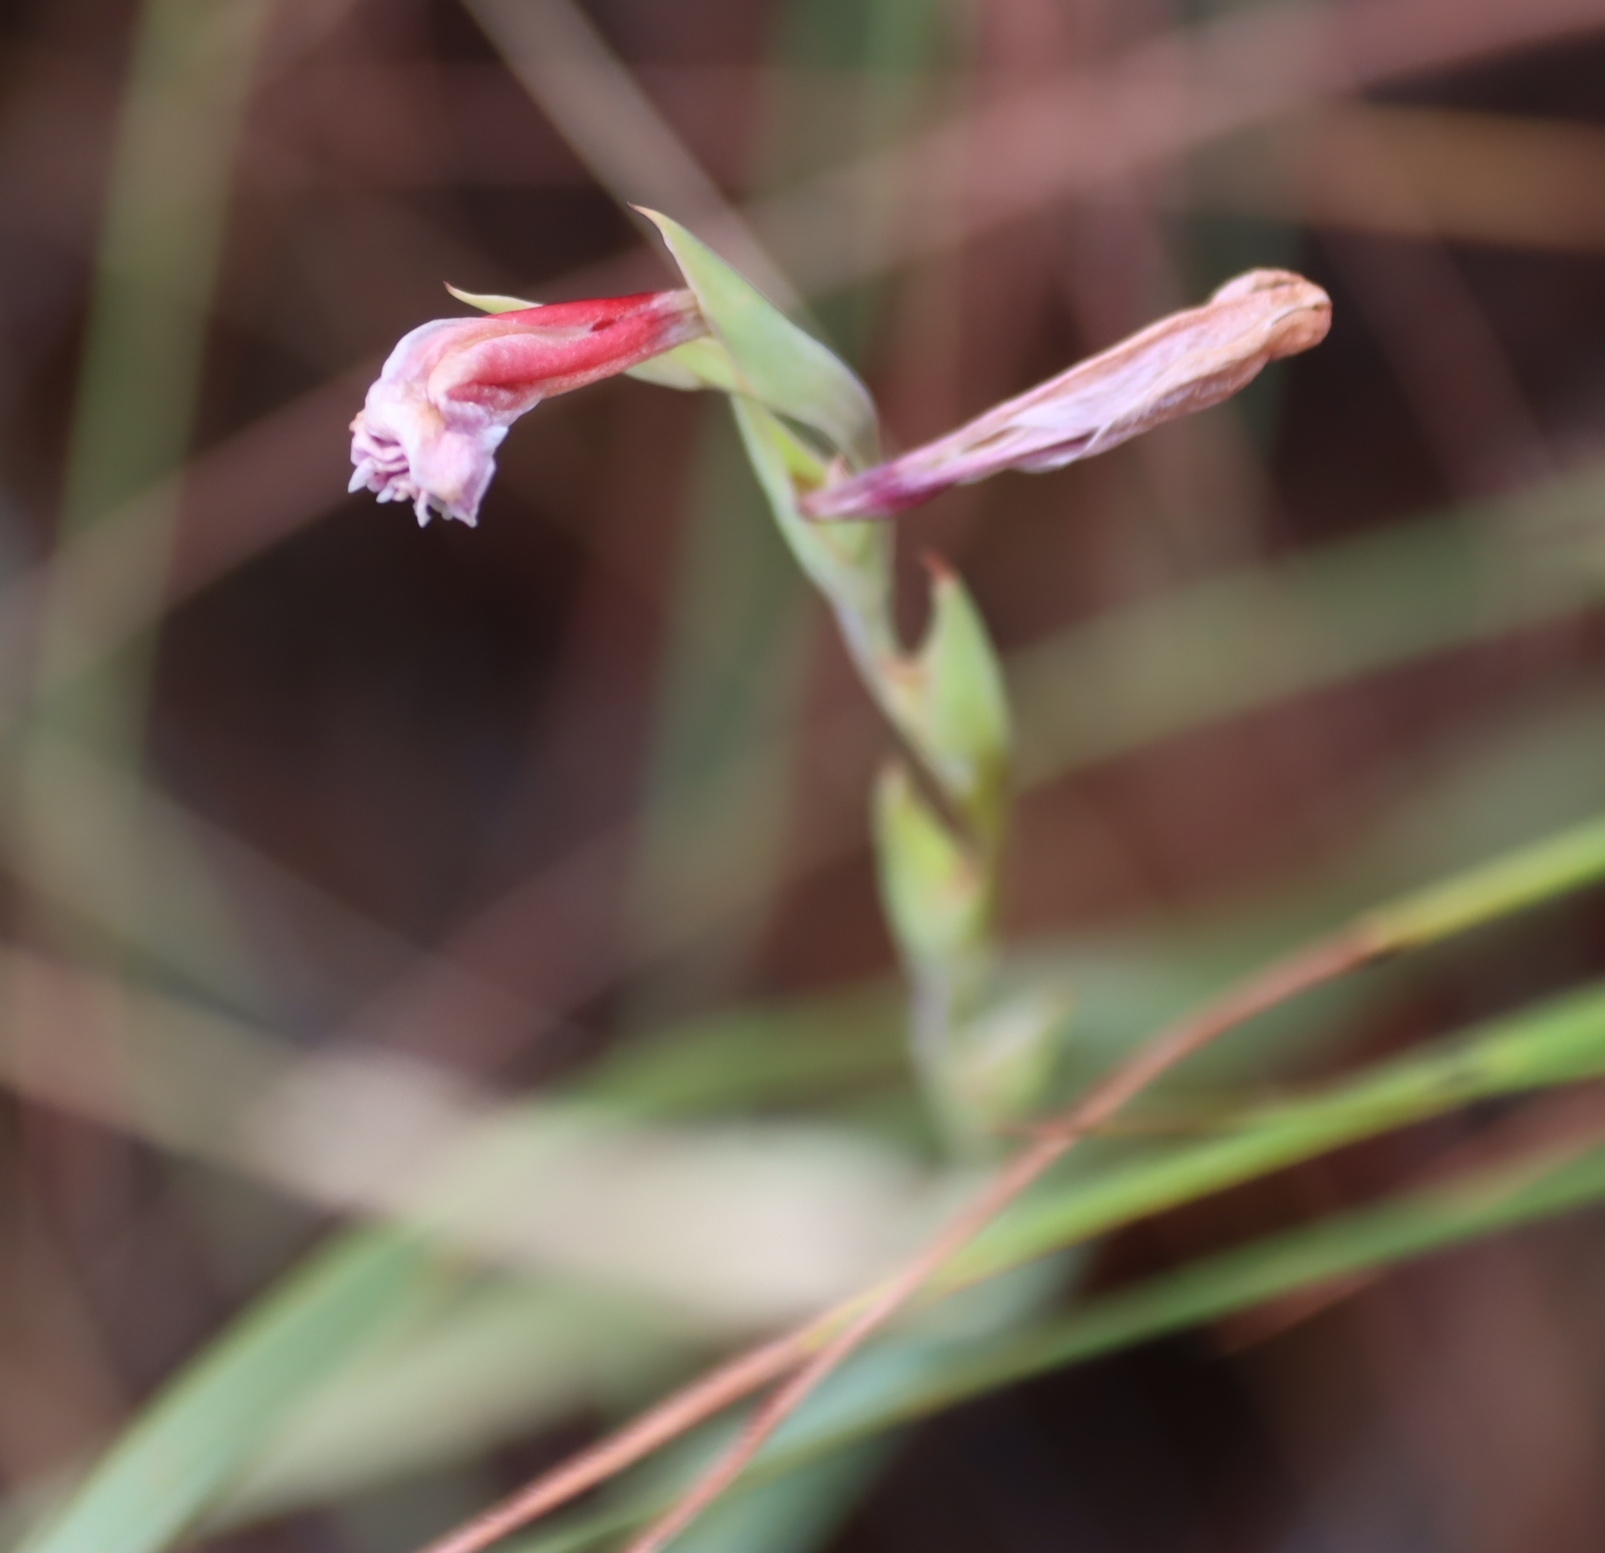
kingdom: Plantae
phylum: Tracheophyta
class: Liliopsida
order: Asparagales
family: Iridaceae
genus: Gladiolus
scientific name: Gladiolus scabridus
